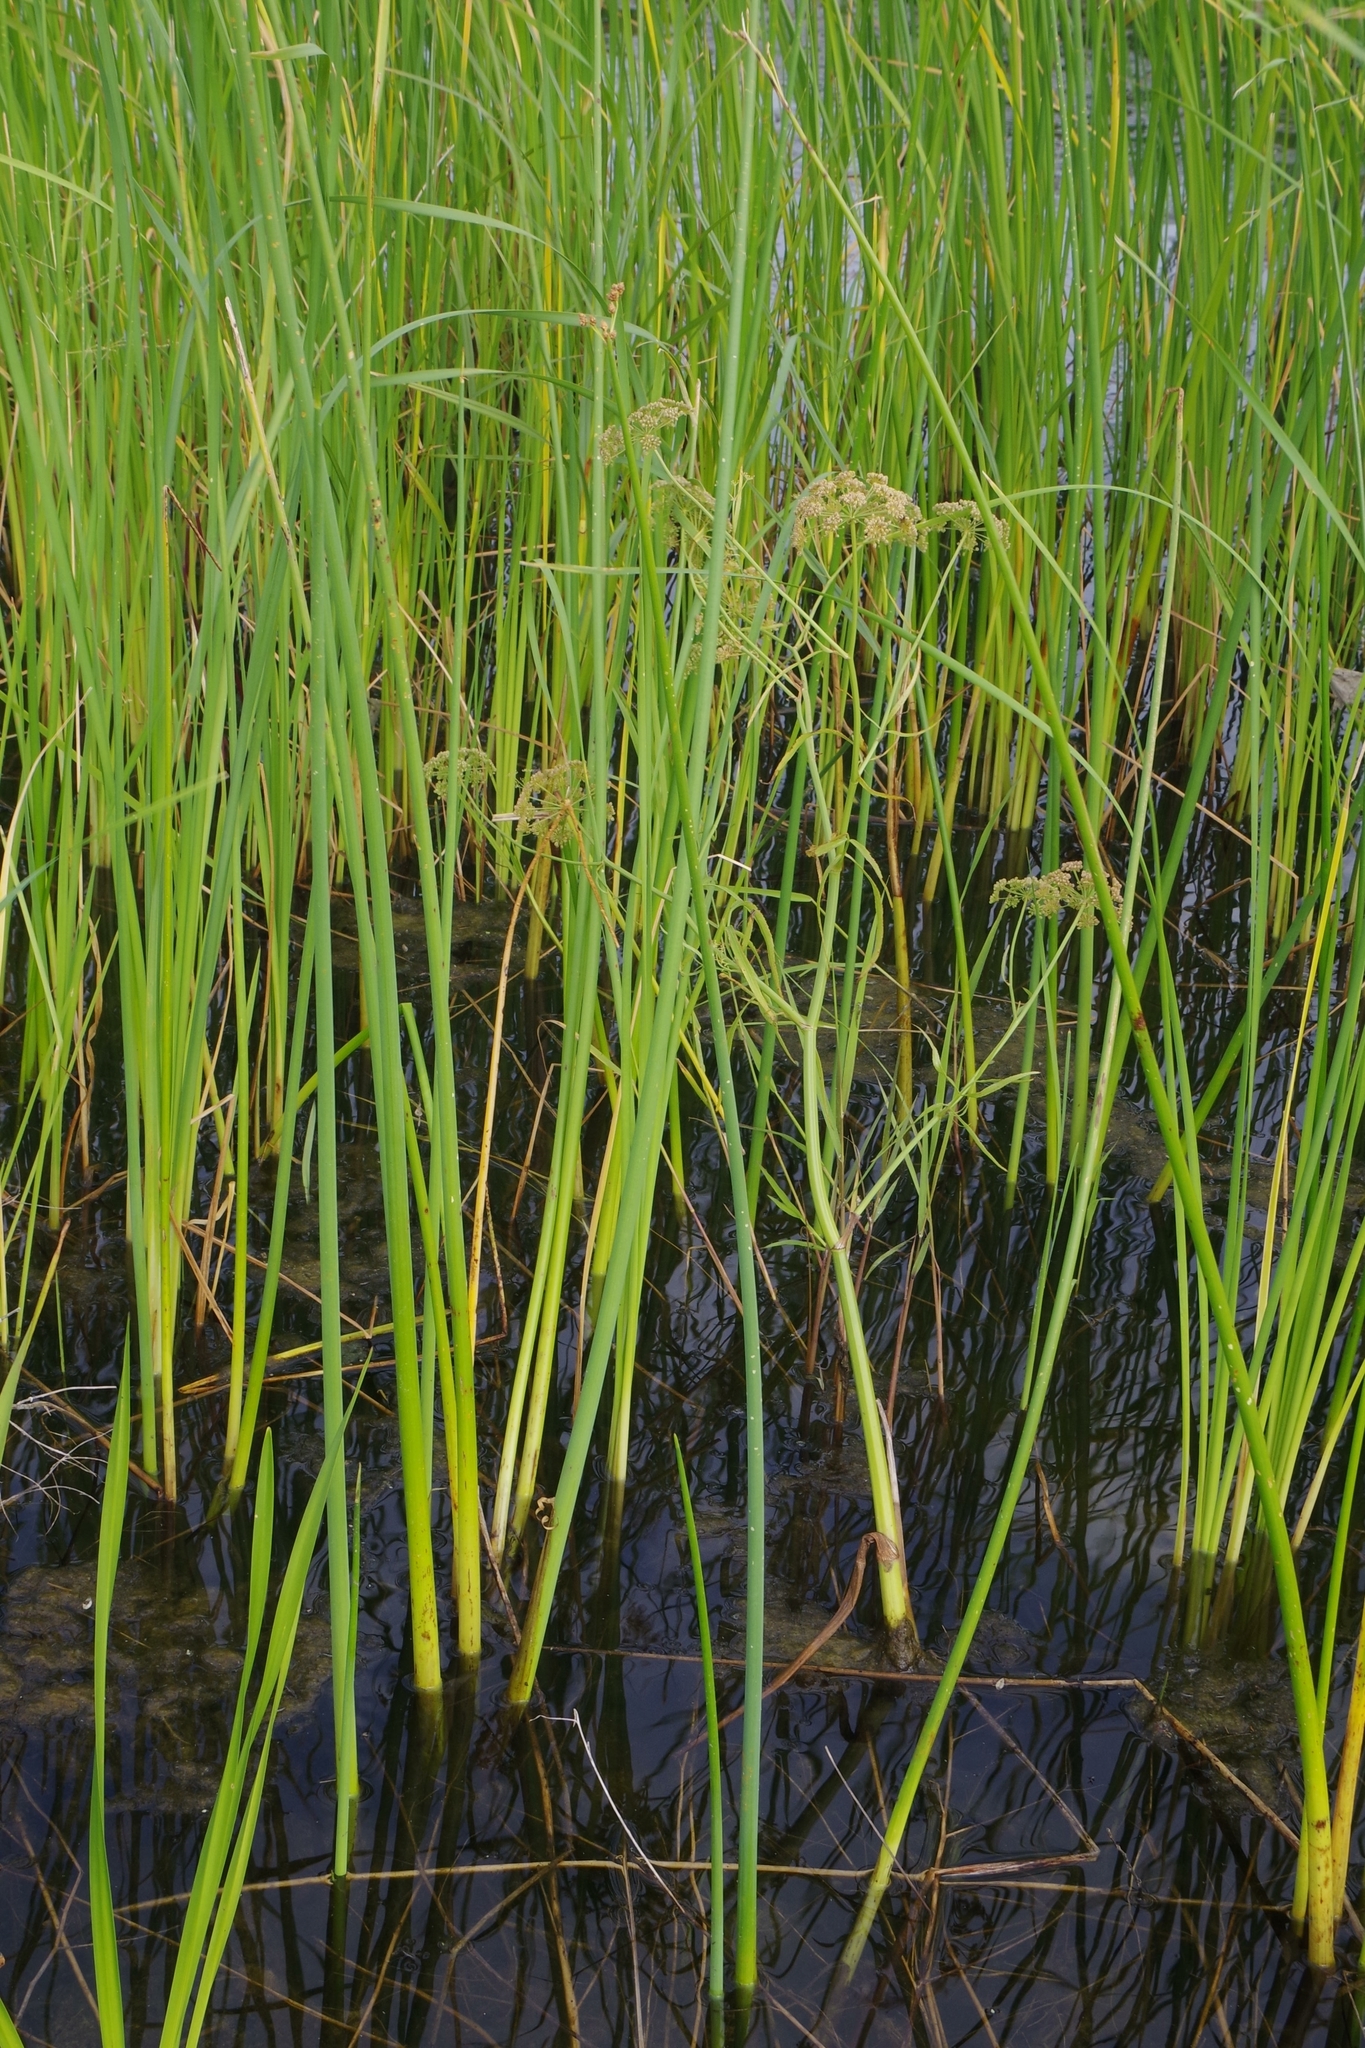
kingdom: Plantae
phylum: Tracheophyta
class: Magnoliopsida
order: Apiales
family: Apiaceae
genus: Sium
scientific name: Sium suave
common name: Hemlock water-parsnip
